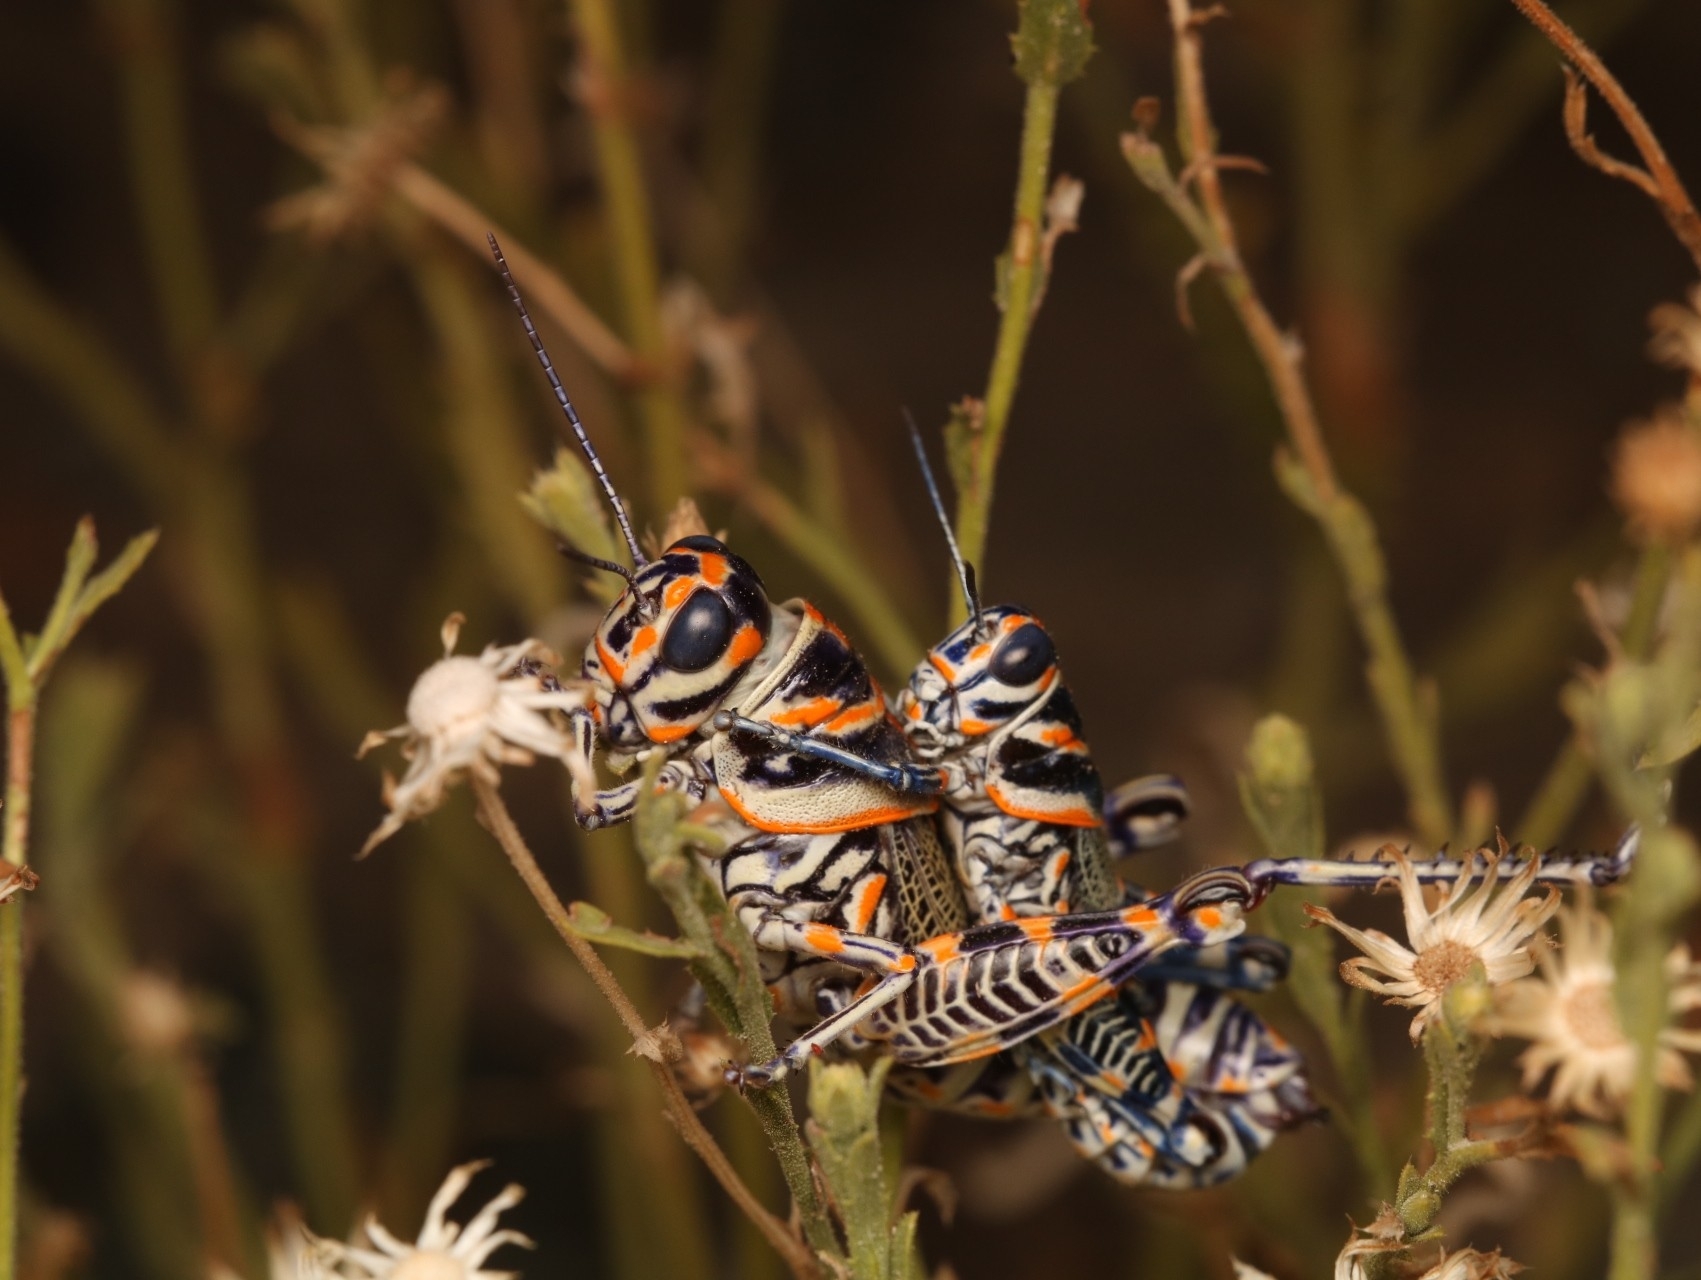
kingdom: Animalia
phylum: Arthropoda
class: Insecta
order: Orthoptera
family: Acrididae
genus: Dactylotum
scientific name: Dactylotum bicolor
